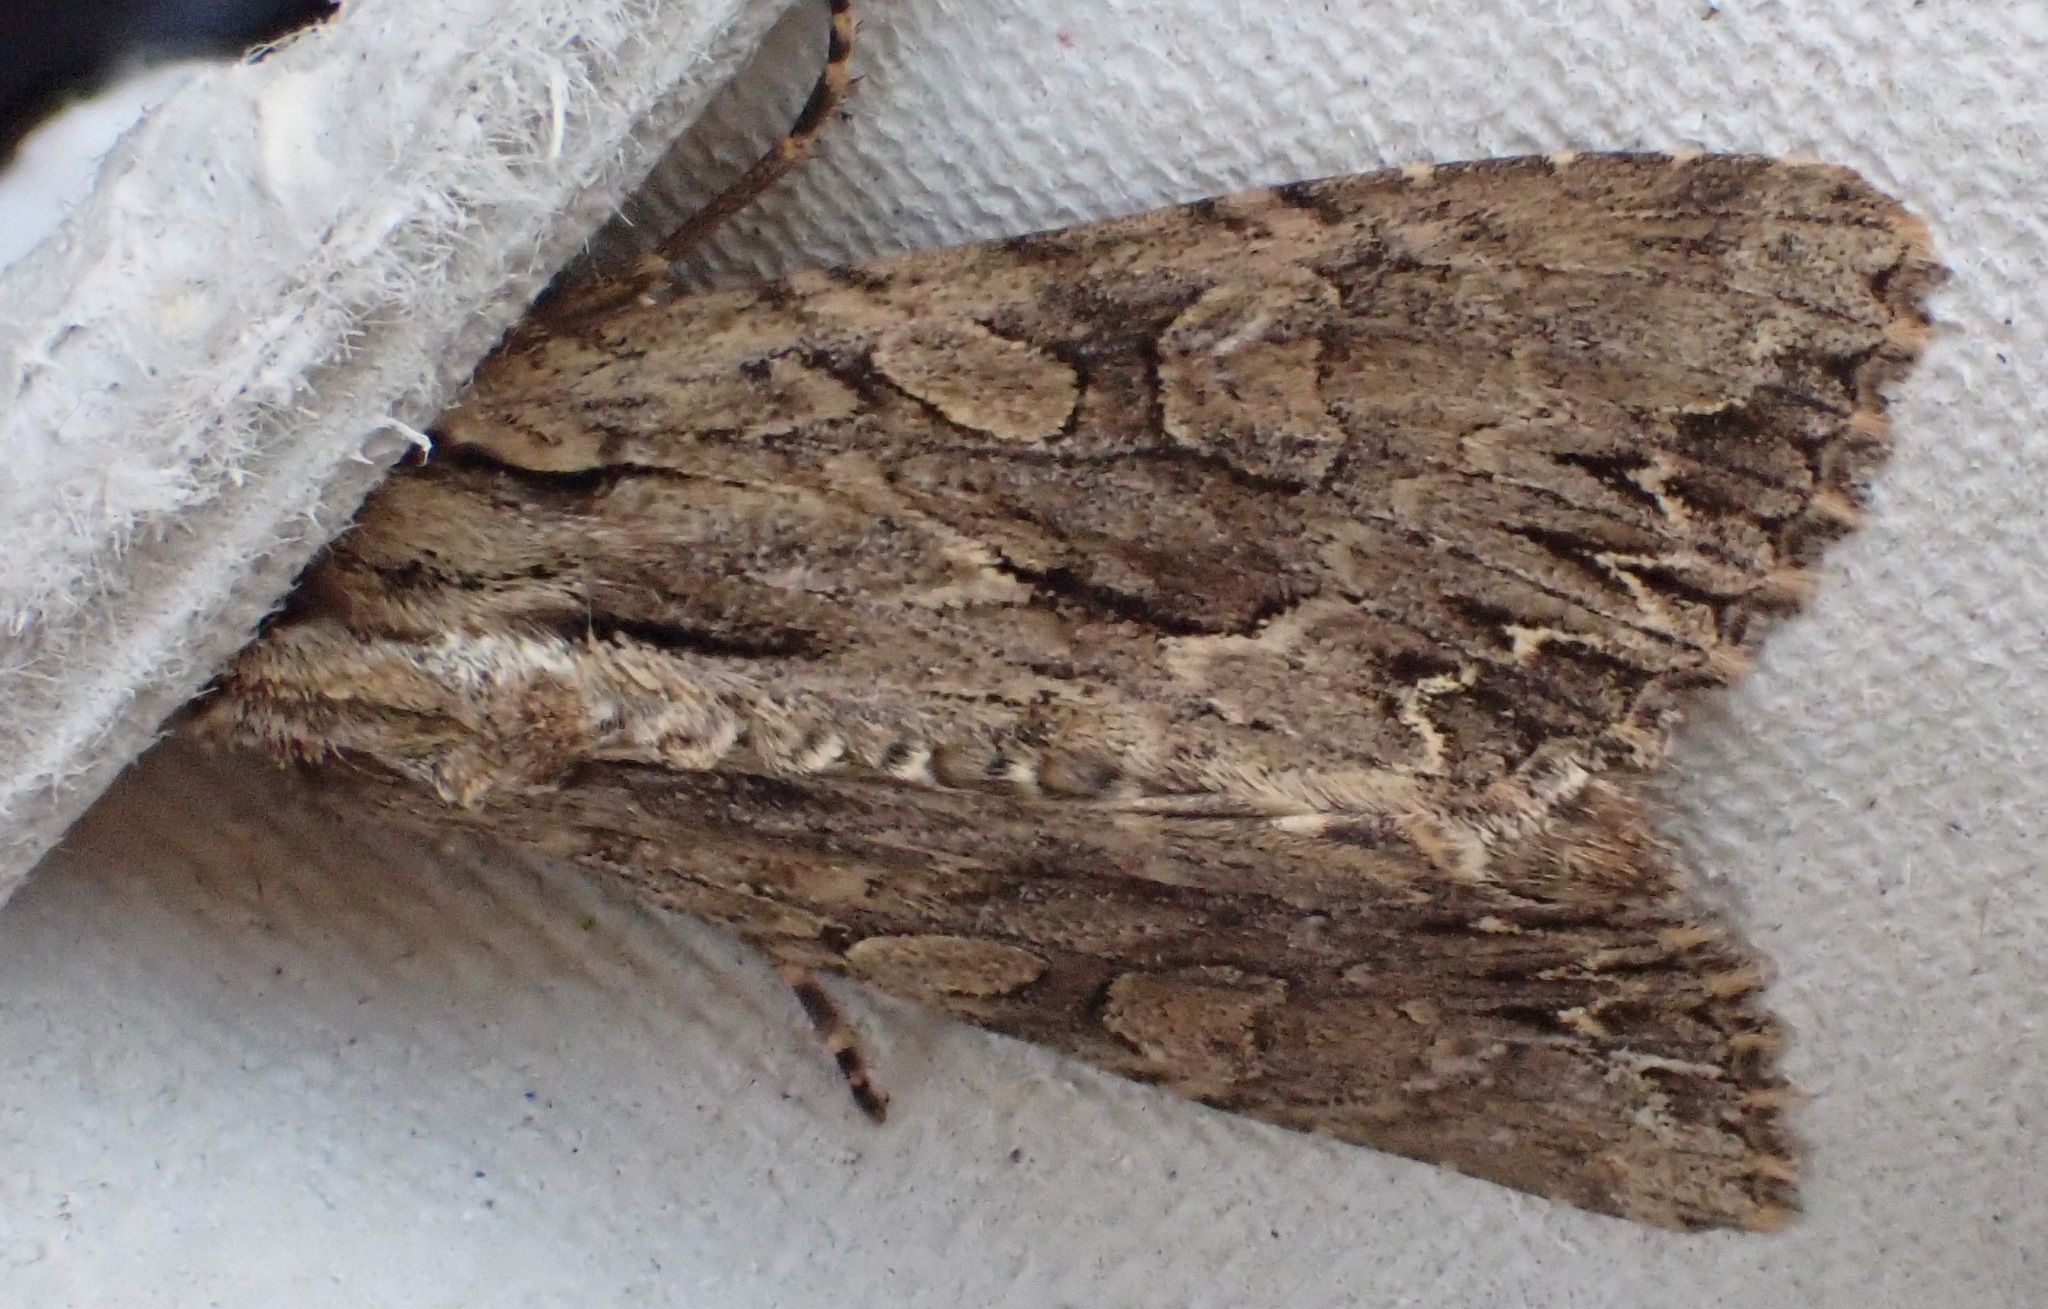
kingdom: Animalia
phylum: Arthropoda
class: Insecta
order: Lepidoptera
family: Noctuidae
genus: Apamea
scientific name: Apamea monoglypha
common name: Dark arches
